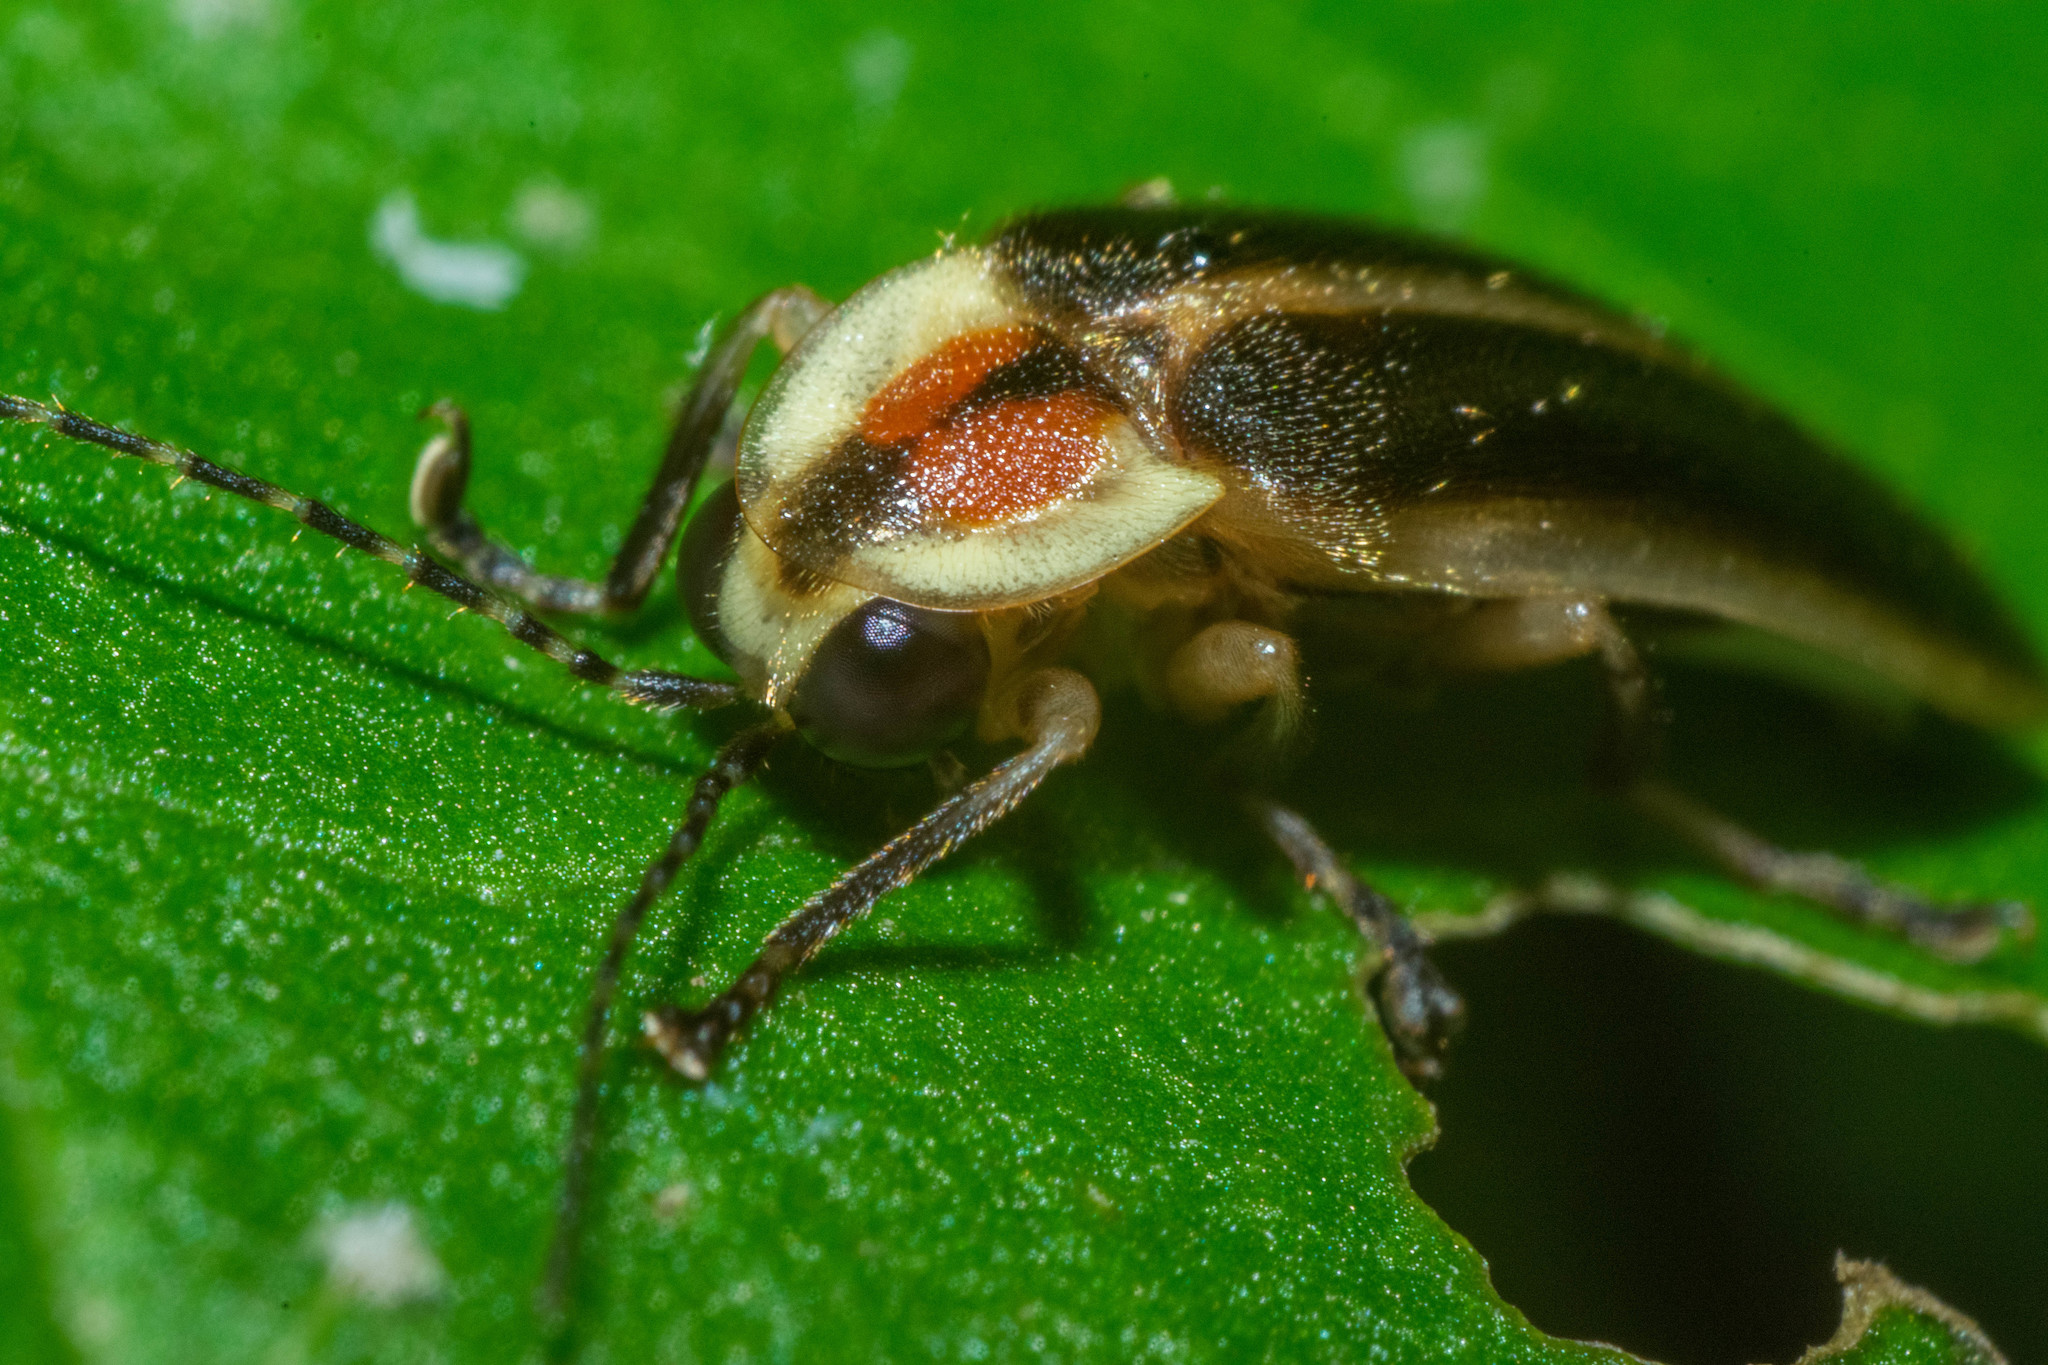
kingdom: Animalia
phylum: Arthropoda
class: Insecta
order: Coleoptera
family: Lampyridae
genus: Photuris
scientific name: Photuris
